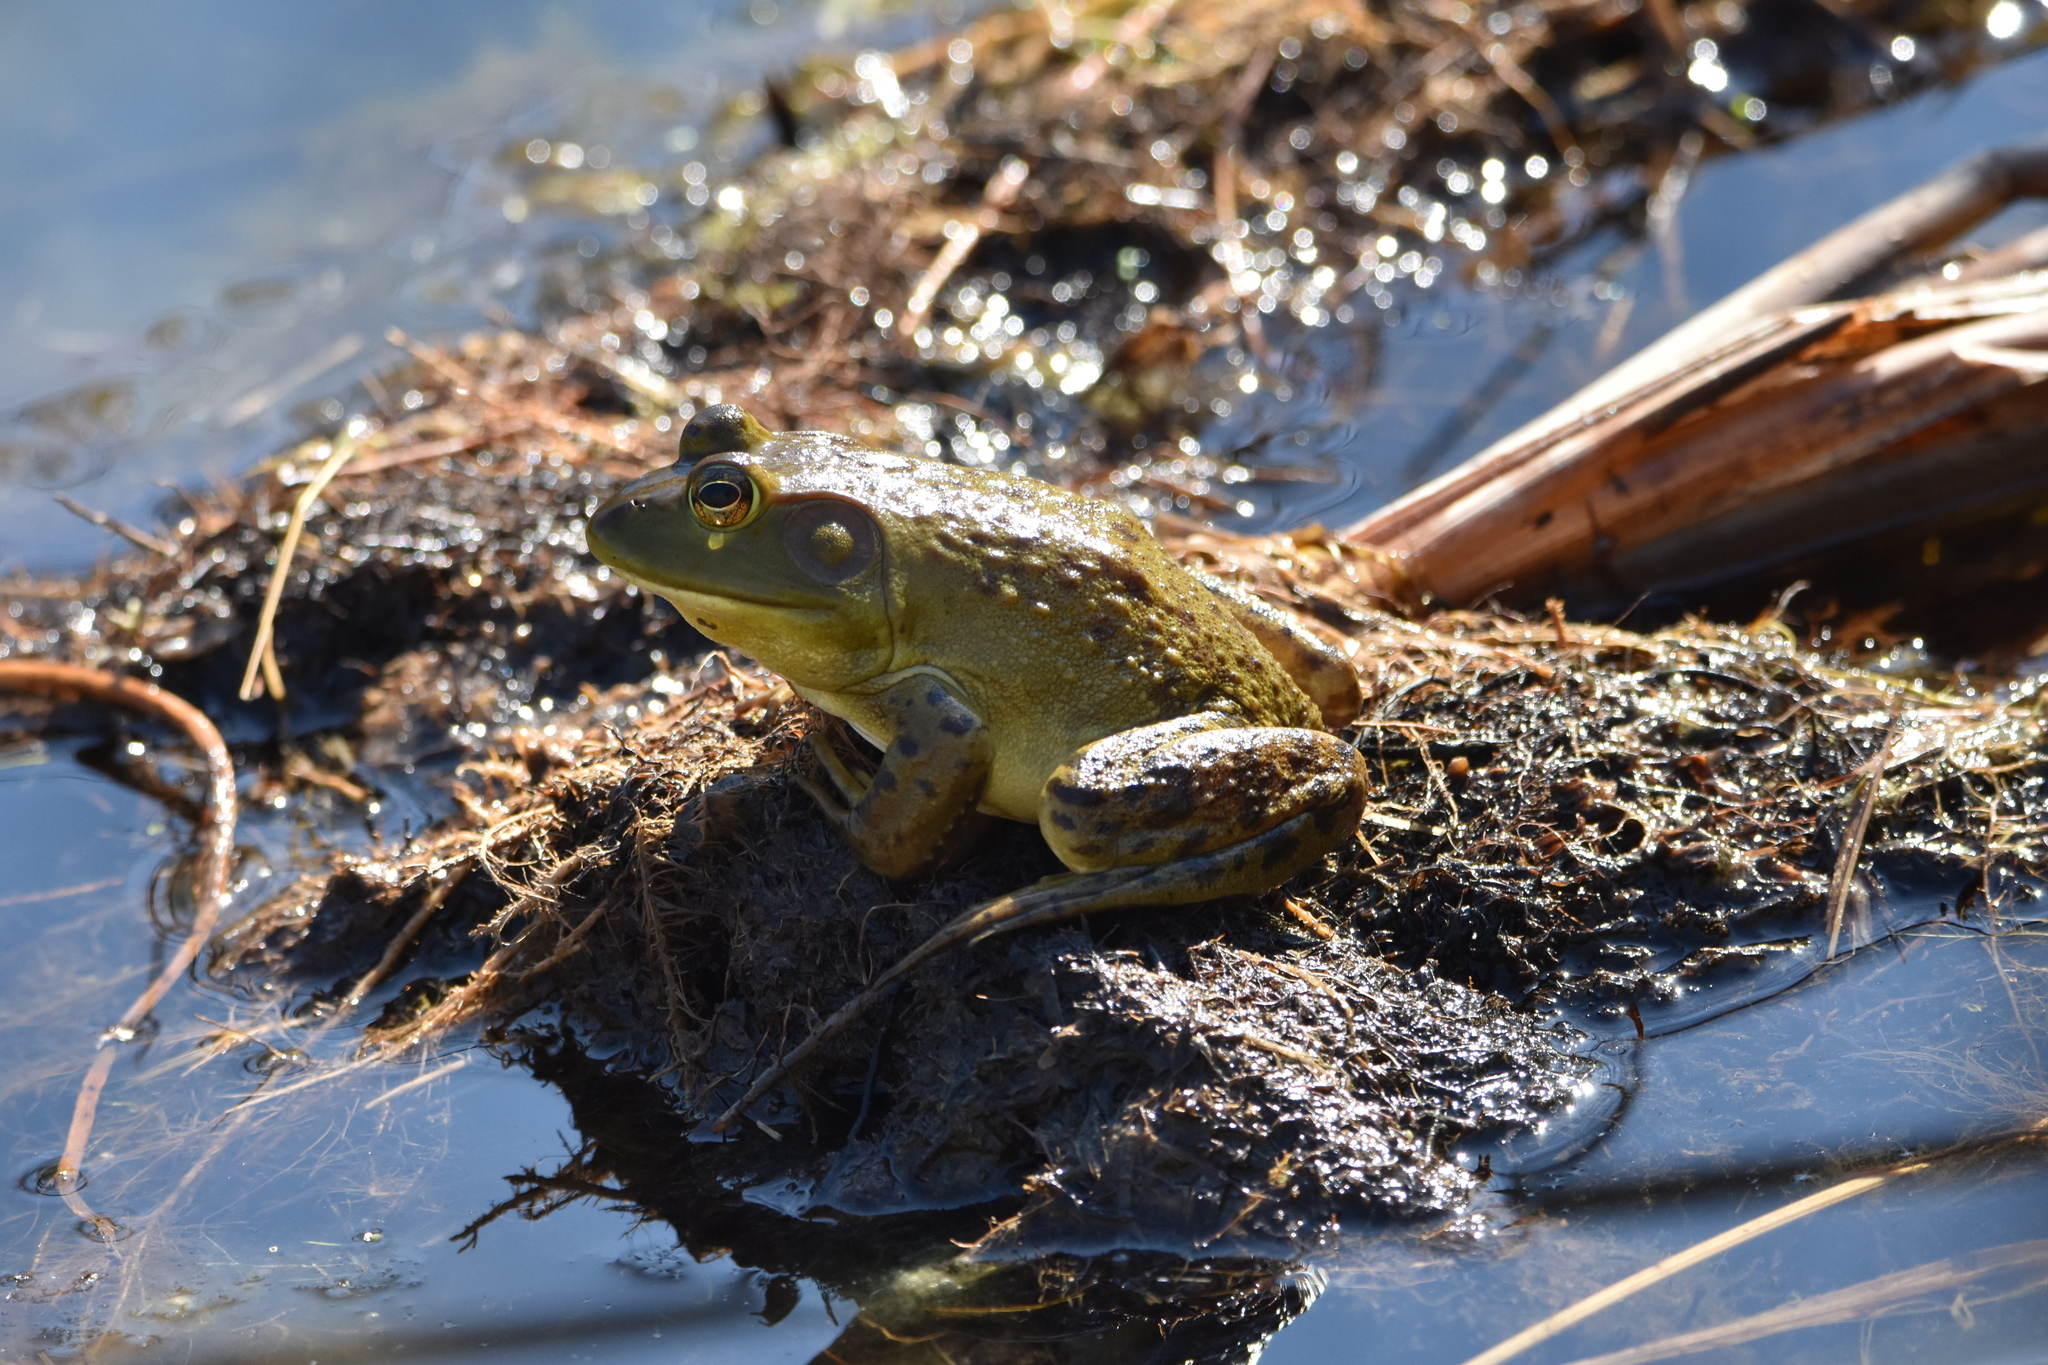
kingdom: Animalia
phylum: Chordata
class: Amphibia
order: Anura
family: Ranidae
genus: Lithobates
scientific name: Lithobates catesbeianus
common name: American bullfrog
